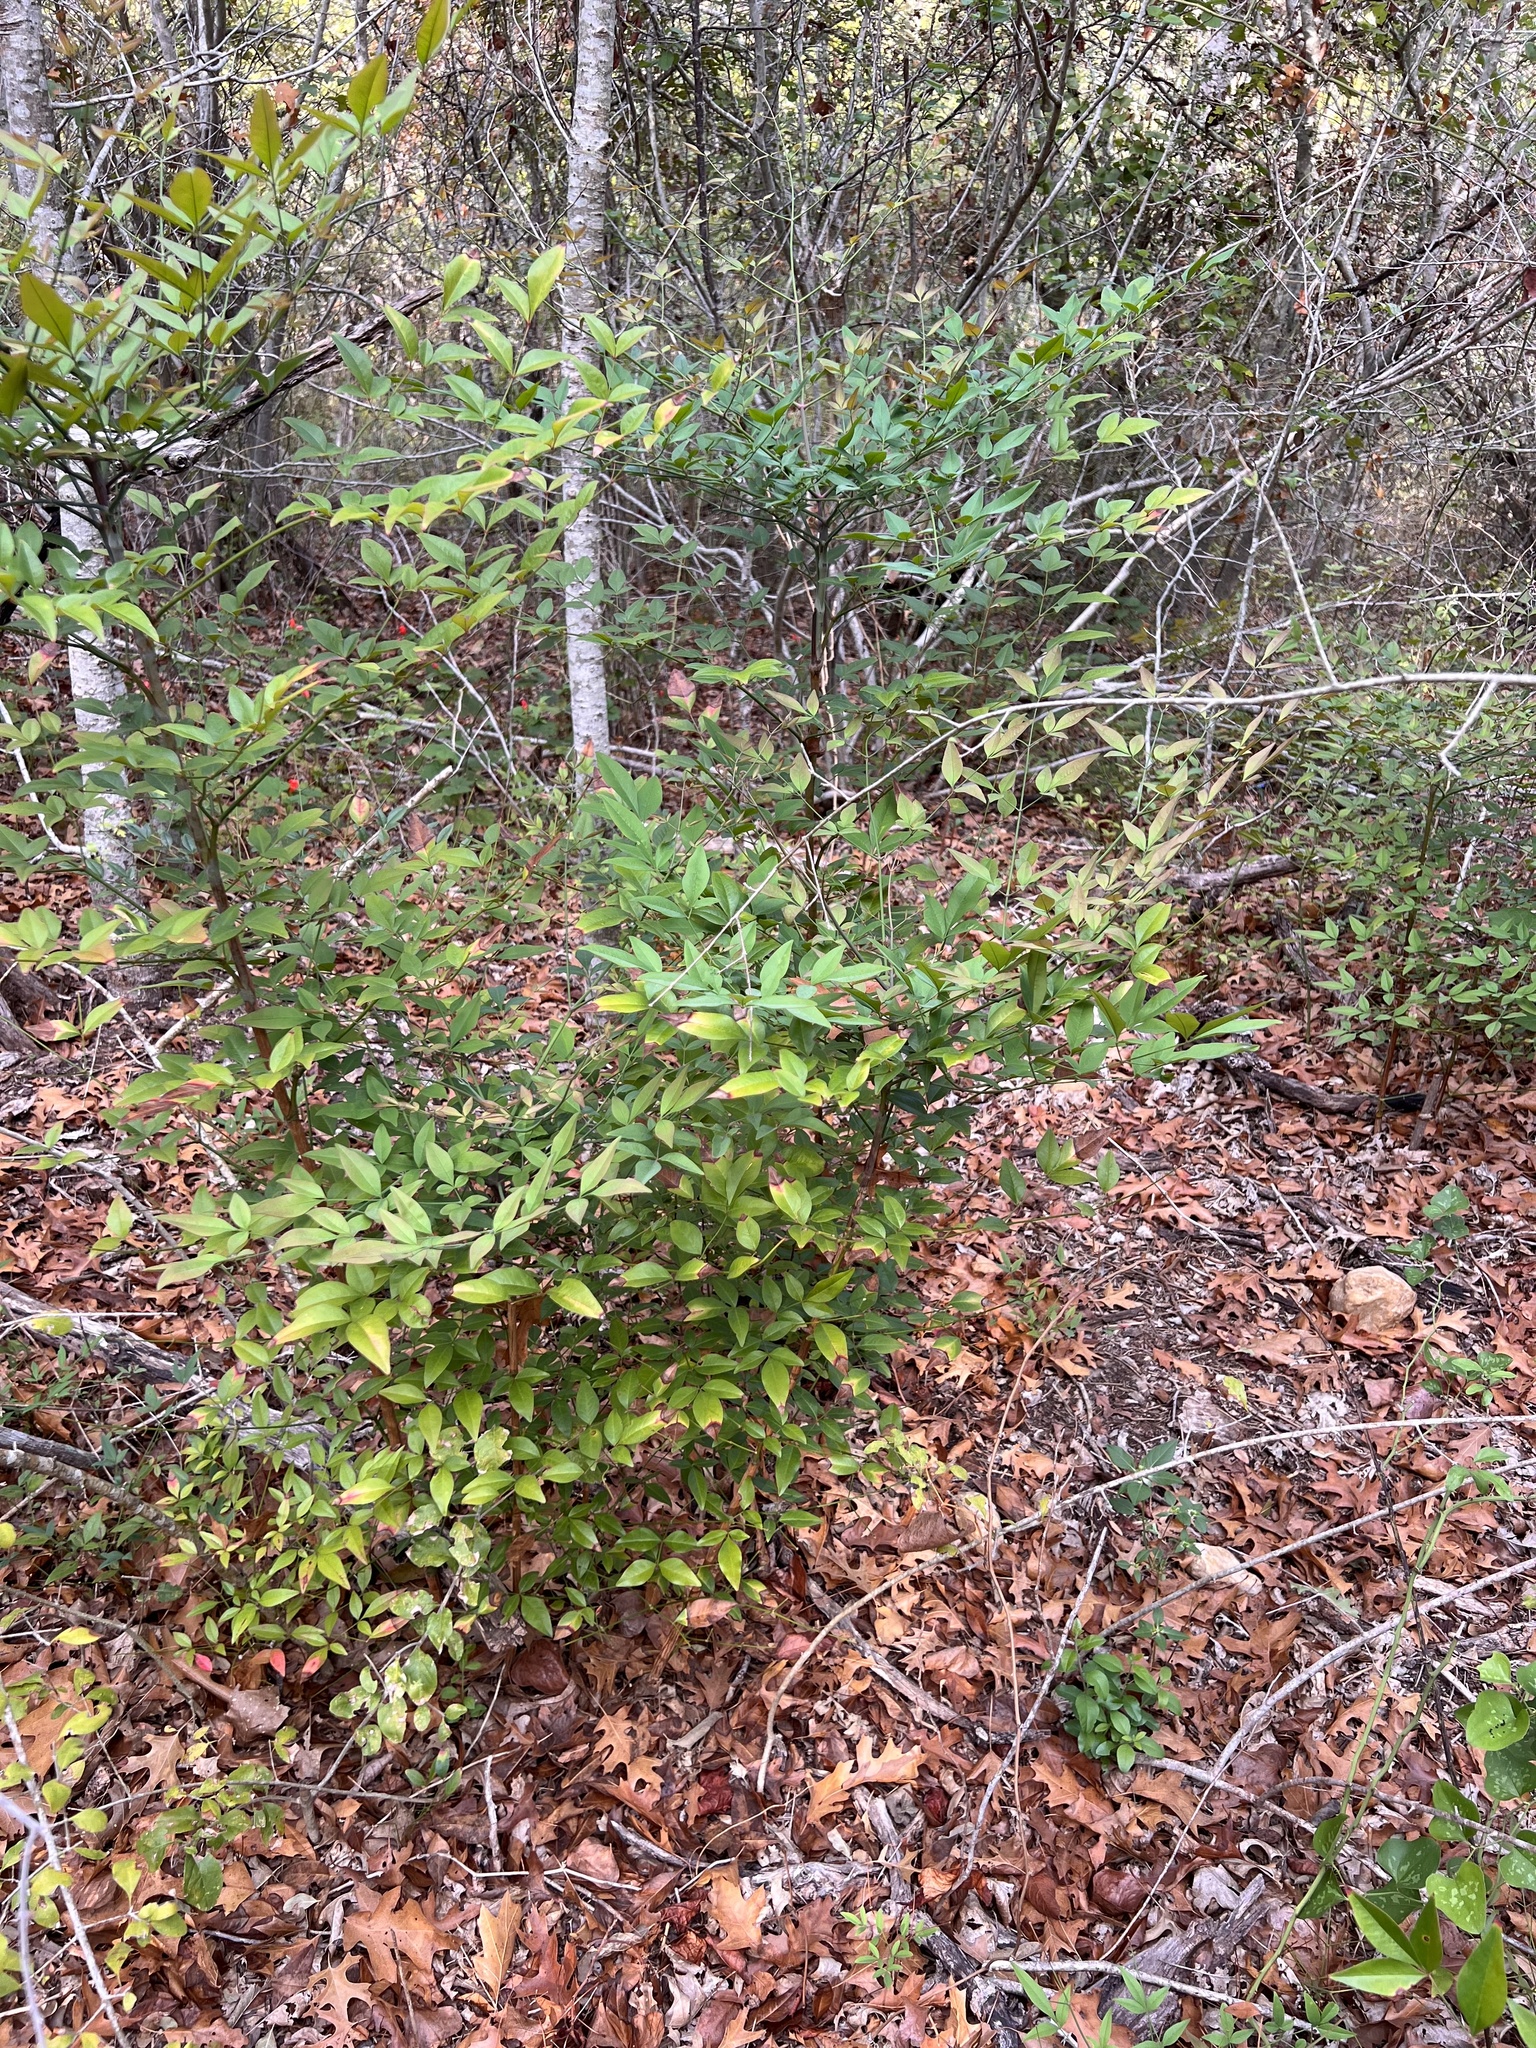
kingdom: Plantae
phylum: Tracheophyta
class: Magnoliopsida
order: Ranunculales
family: Berberidaceae
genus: Nandina
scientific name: Nandina domestica
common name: Sacred bamboo
